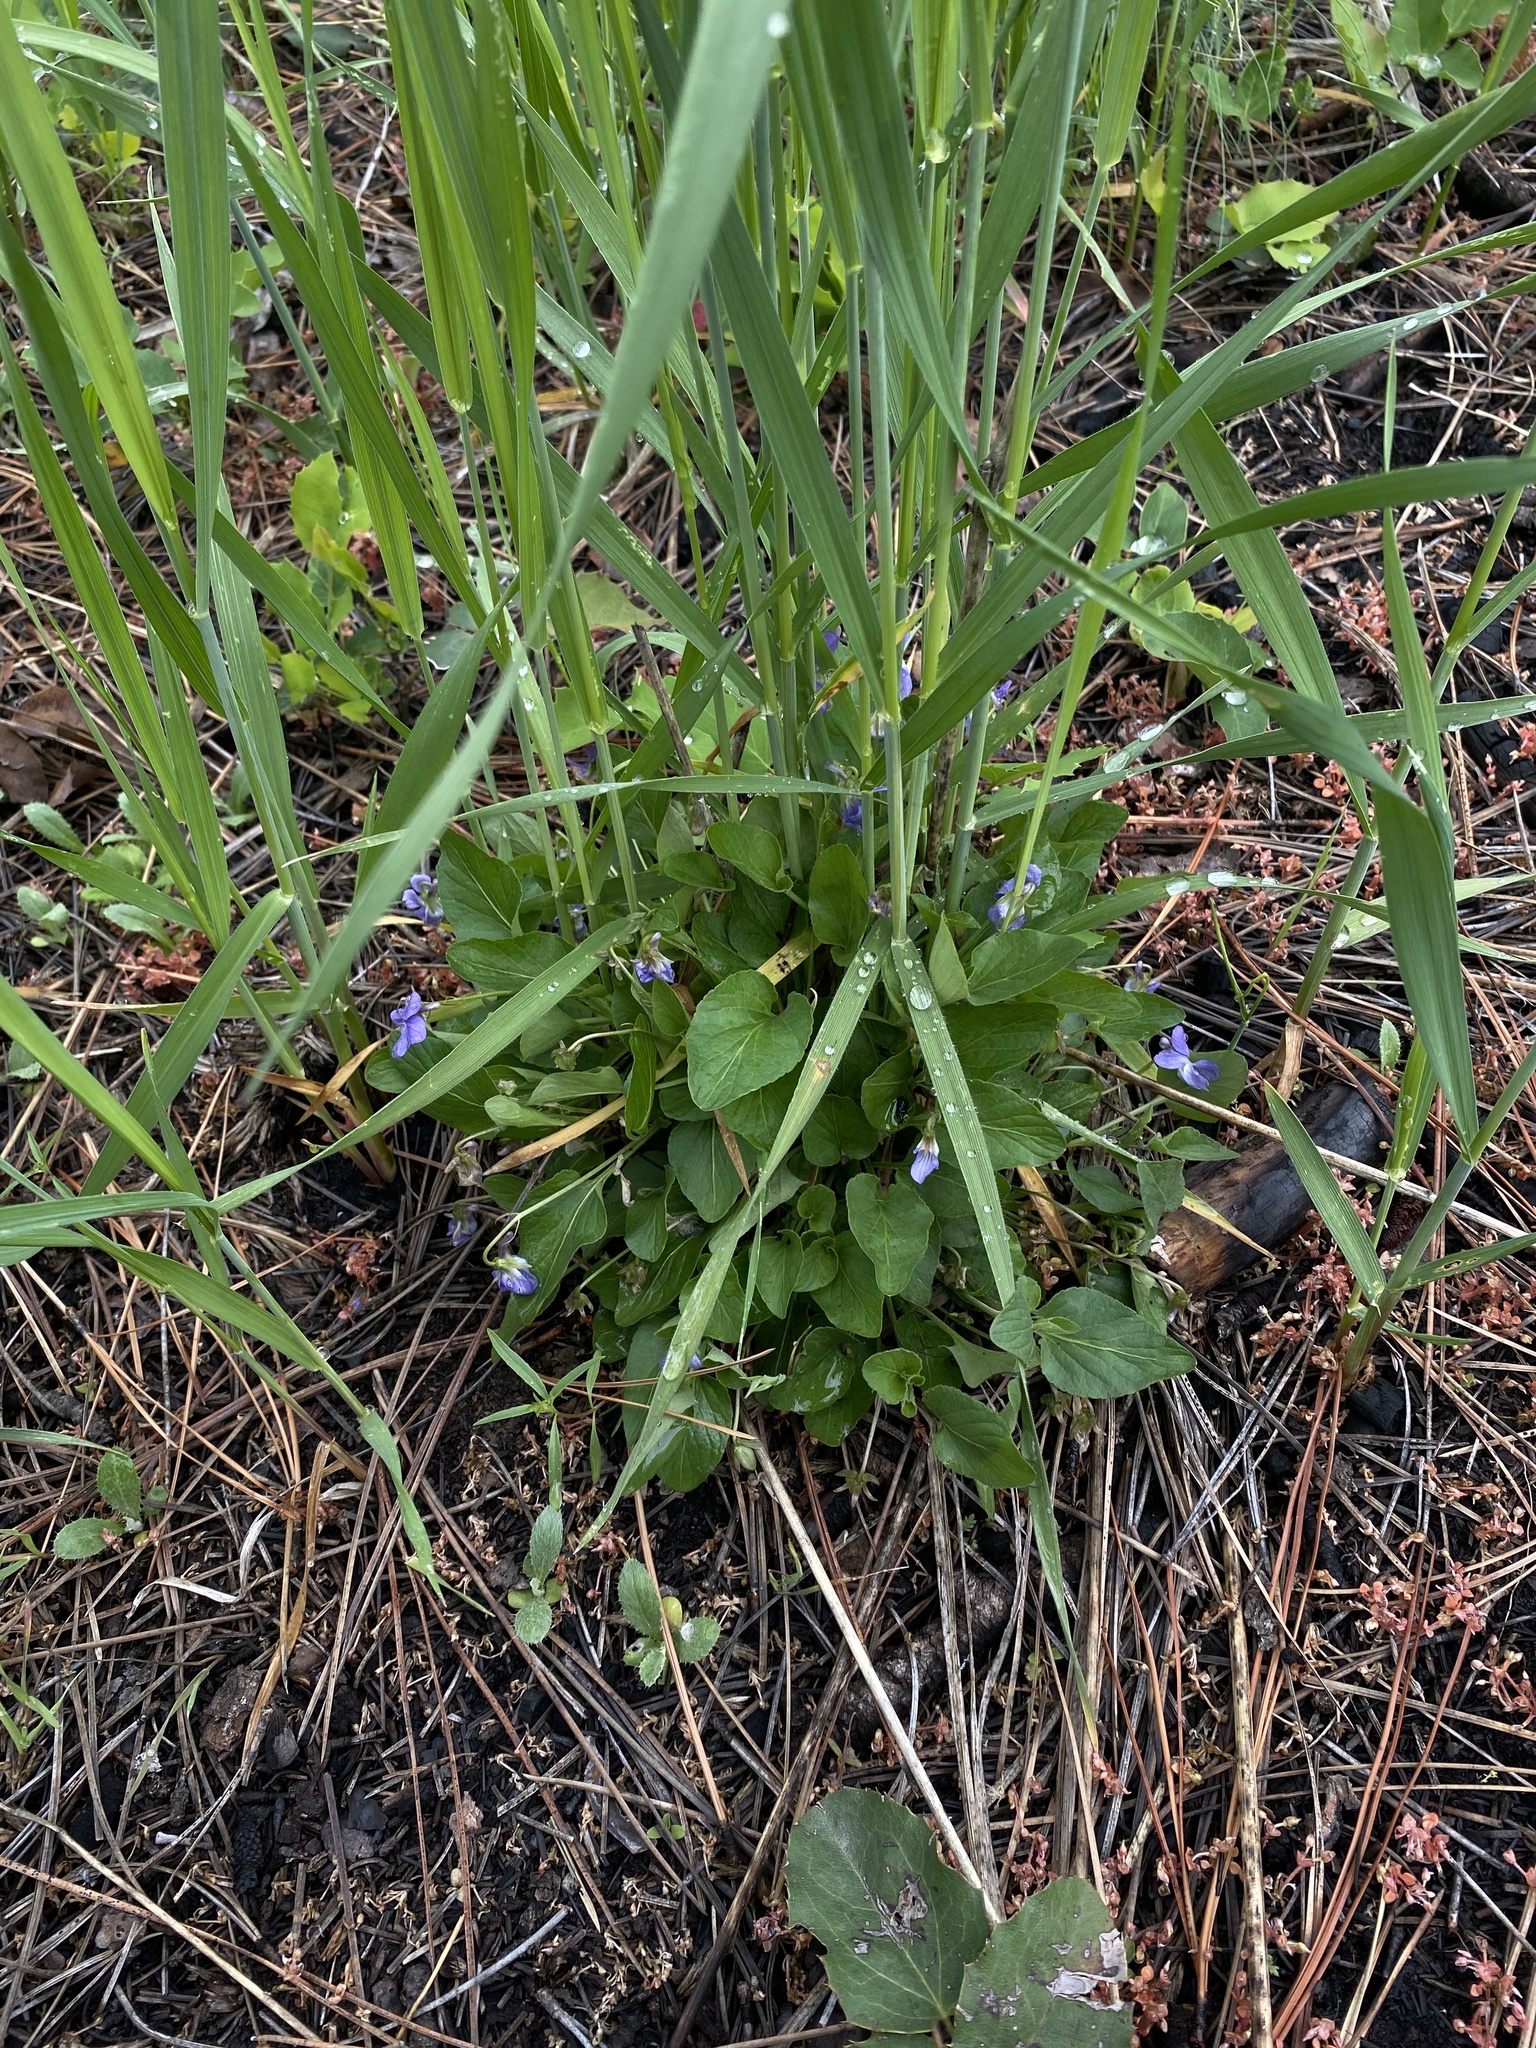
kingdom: Plantae
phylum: Tracheophyta
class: Magnoliopsida
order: Malpighiales
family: Violaceae
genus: Viola
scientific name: Viola adunca
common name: Sand violet
